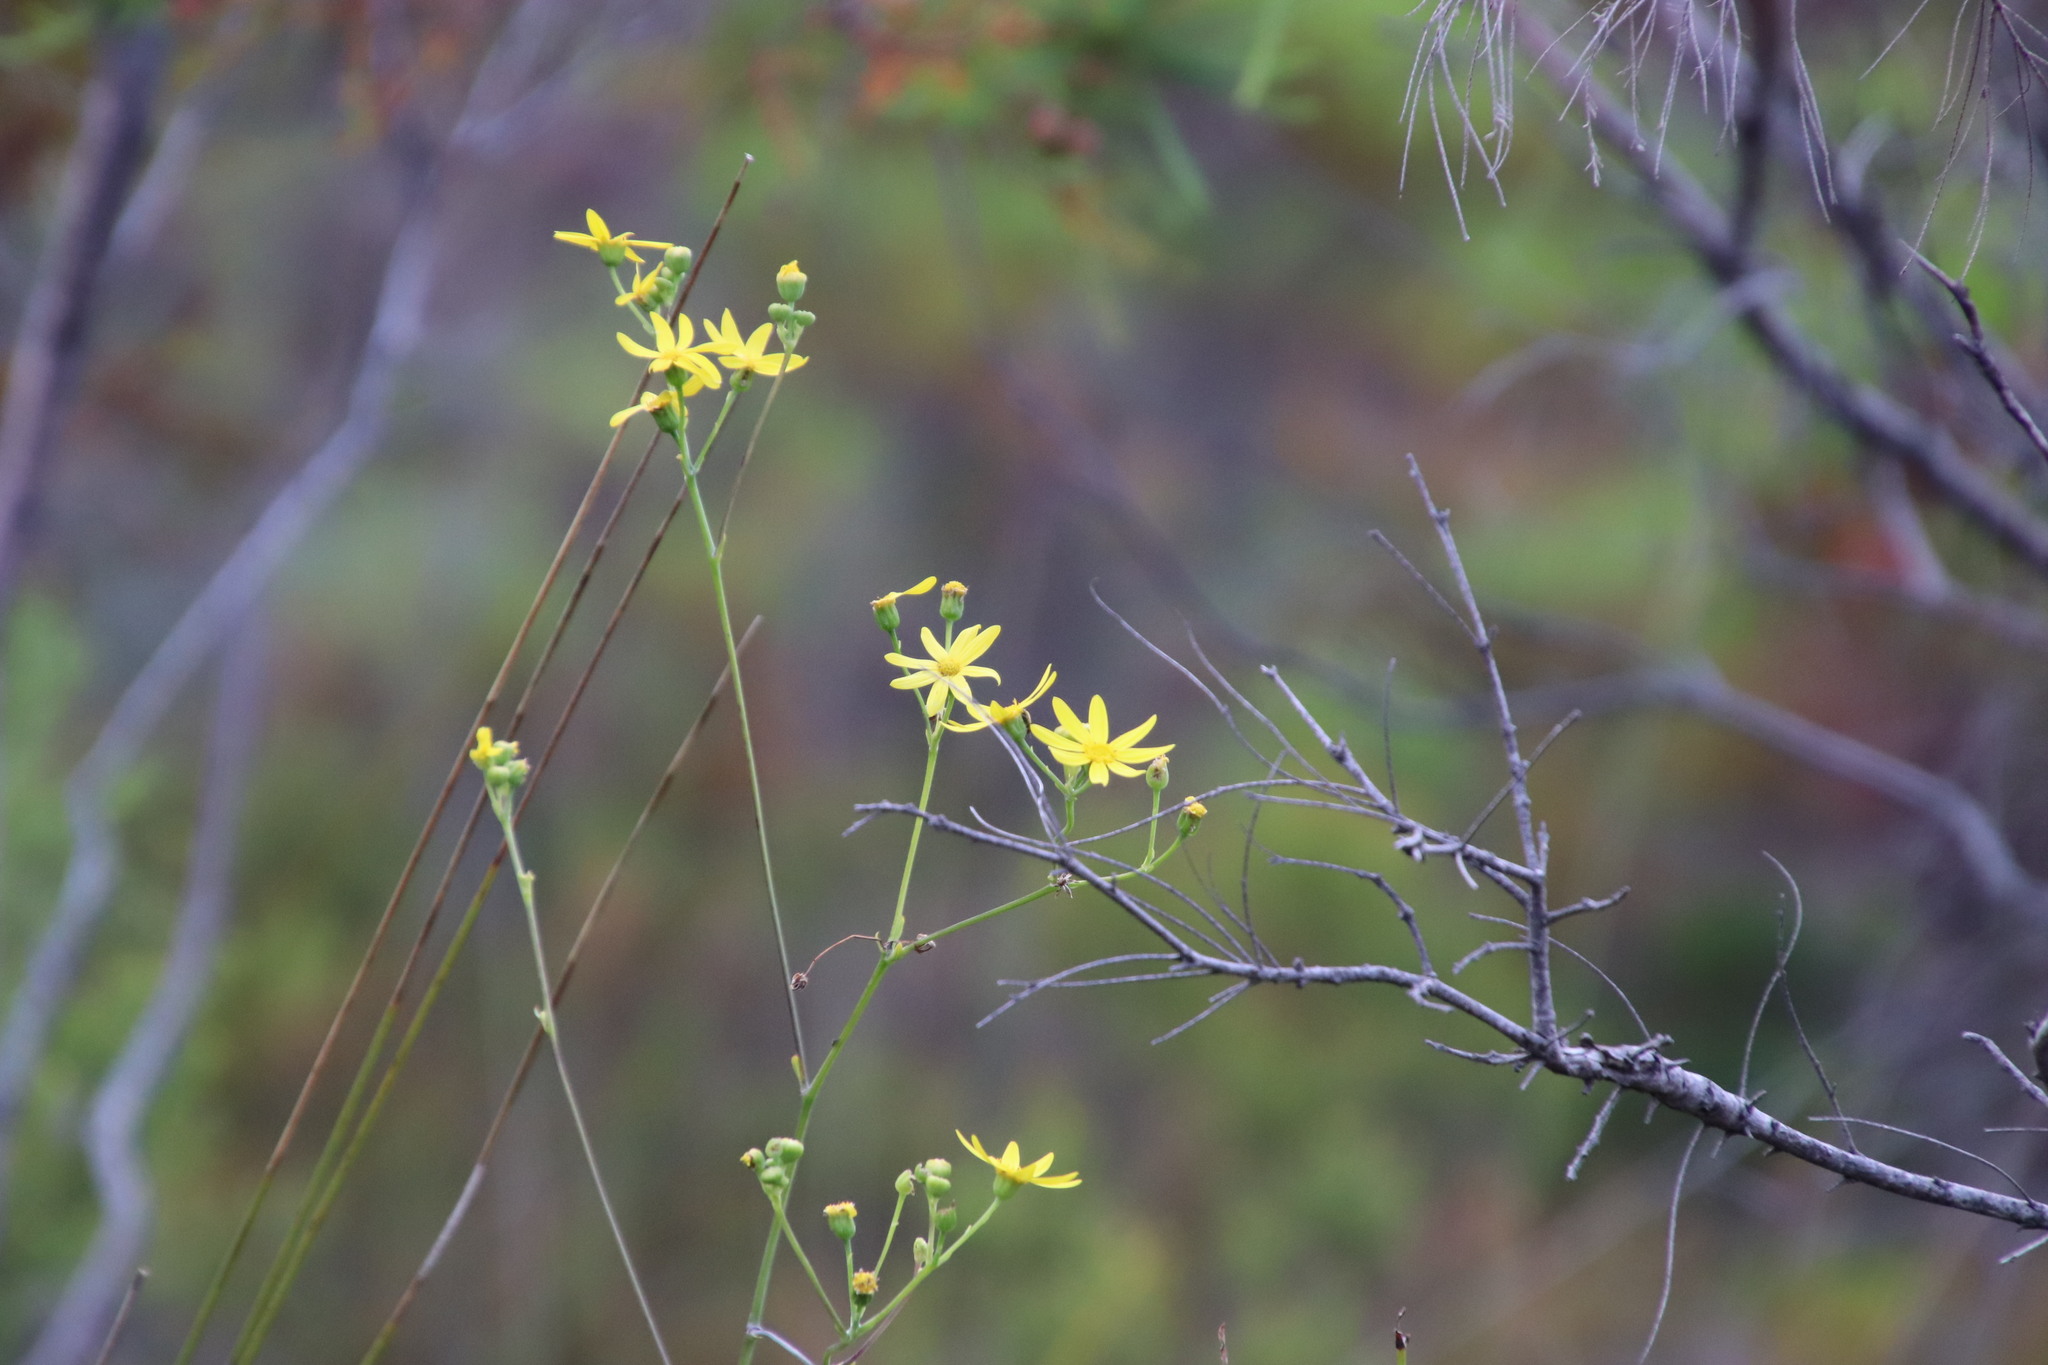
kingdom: Plantae
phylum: Tracheophyta
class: Magnoliopsida
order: Asterales
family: Asteraceae
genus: Othonna
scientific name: Othonna quinquedentata
